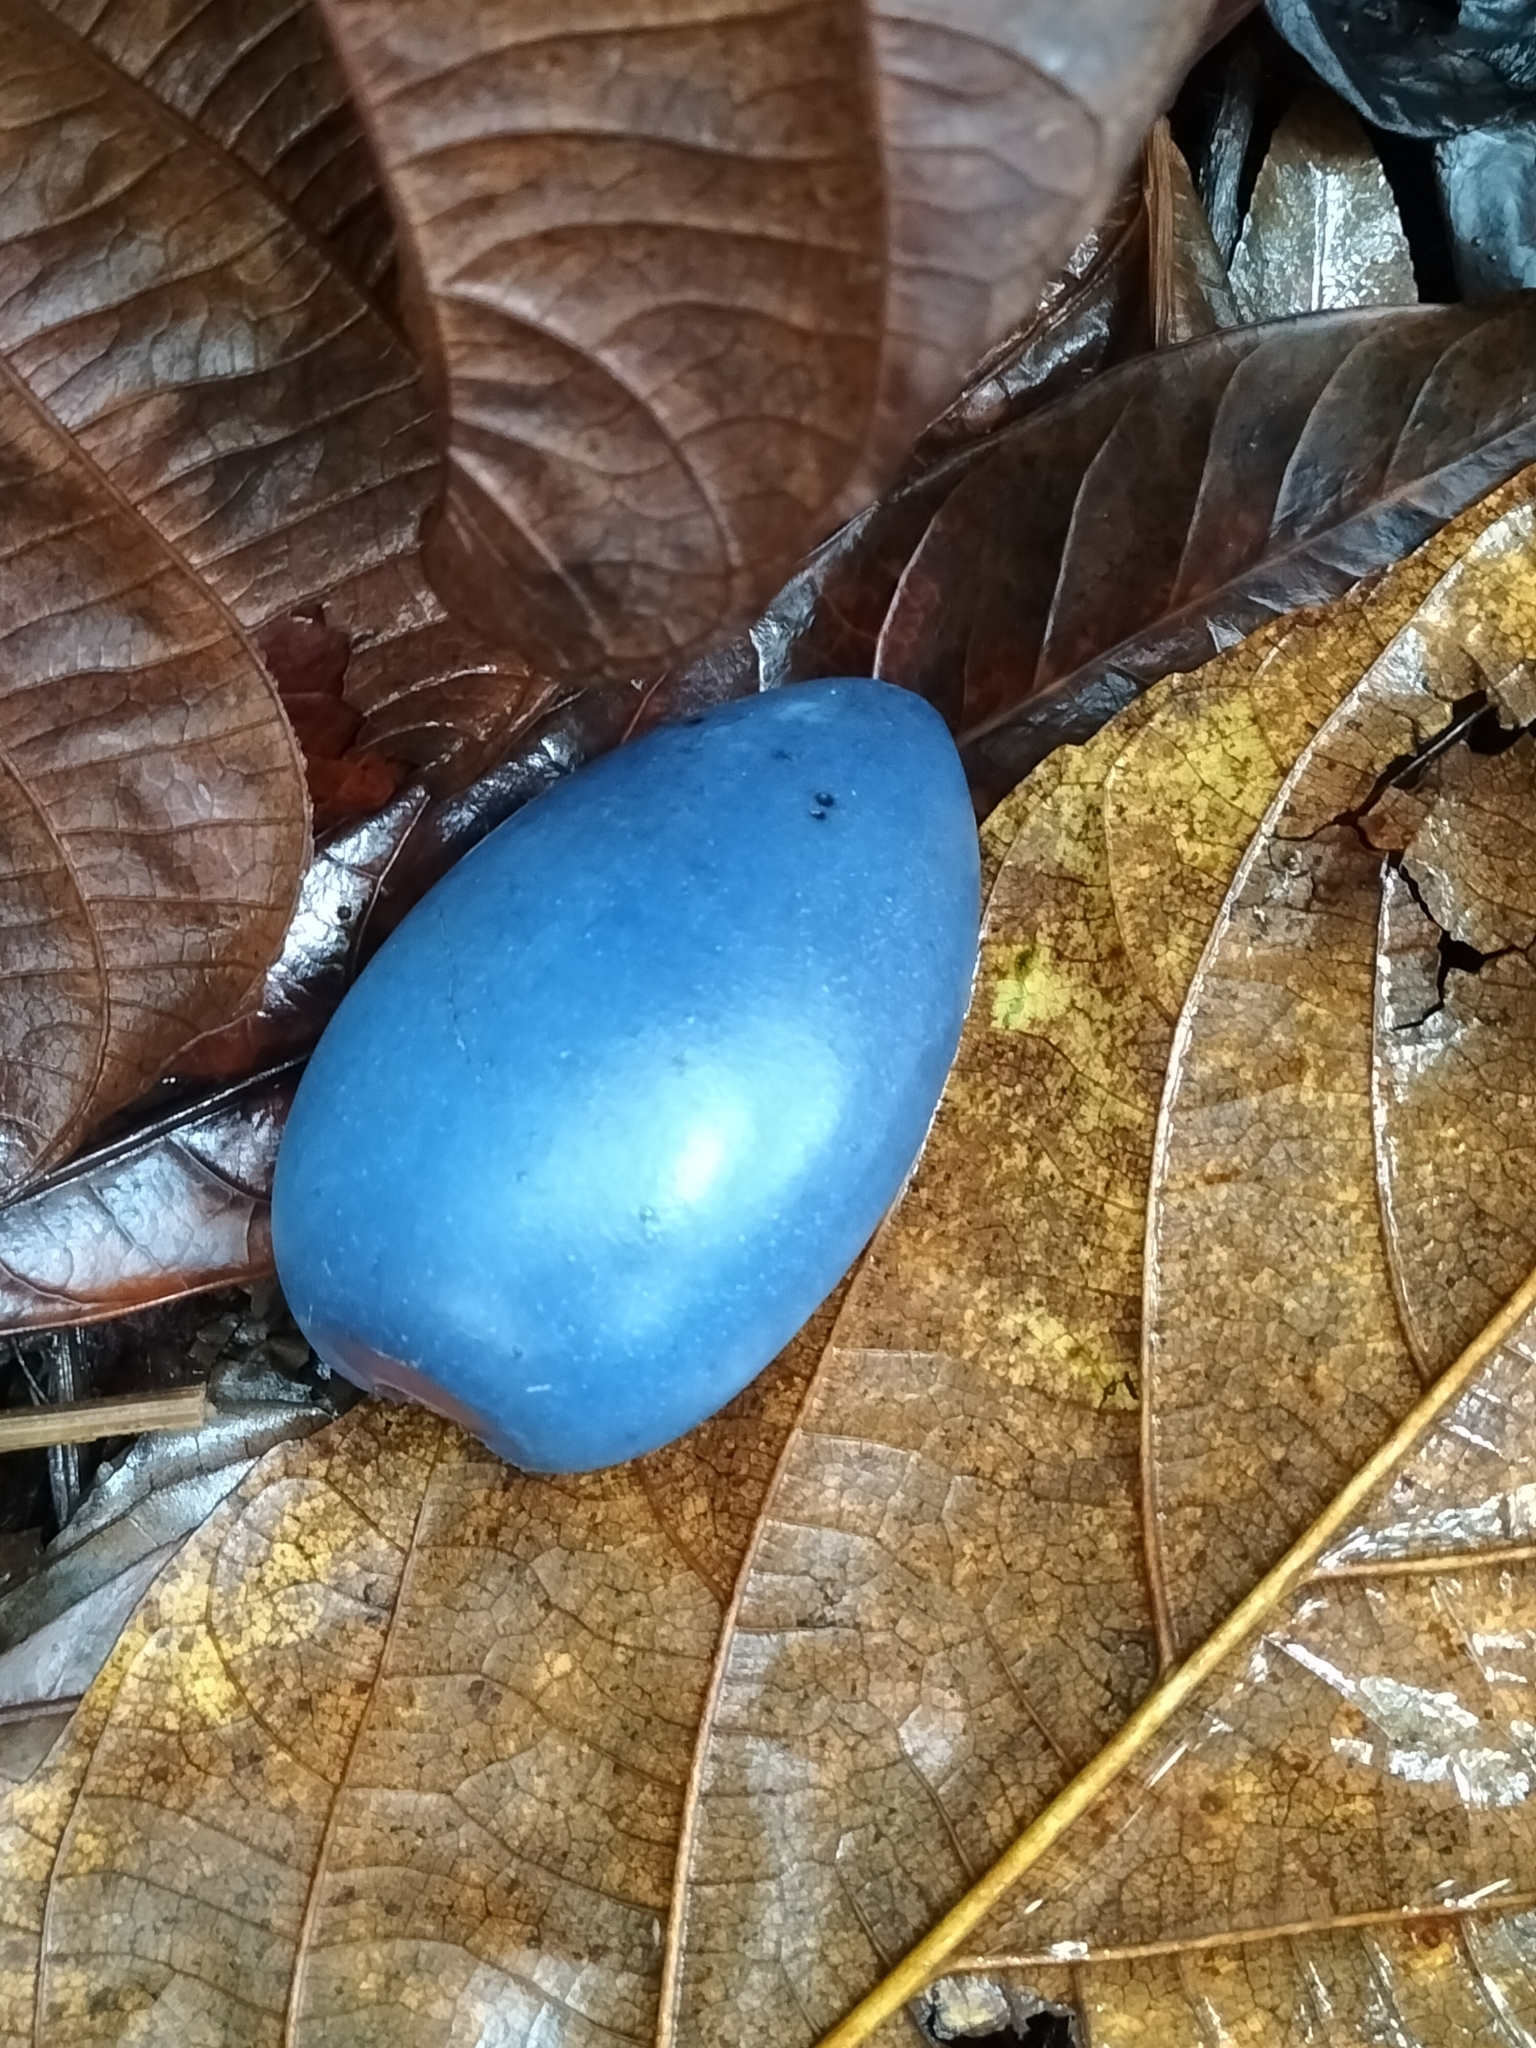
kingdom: Plantae
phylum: Tracheophyta
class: Magnoliopsida
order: Gentianales
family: Apocynaceae
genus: Cerbera
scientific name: Cerbera floribunda
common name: Cassowary plumtree
